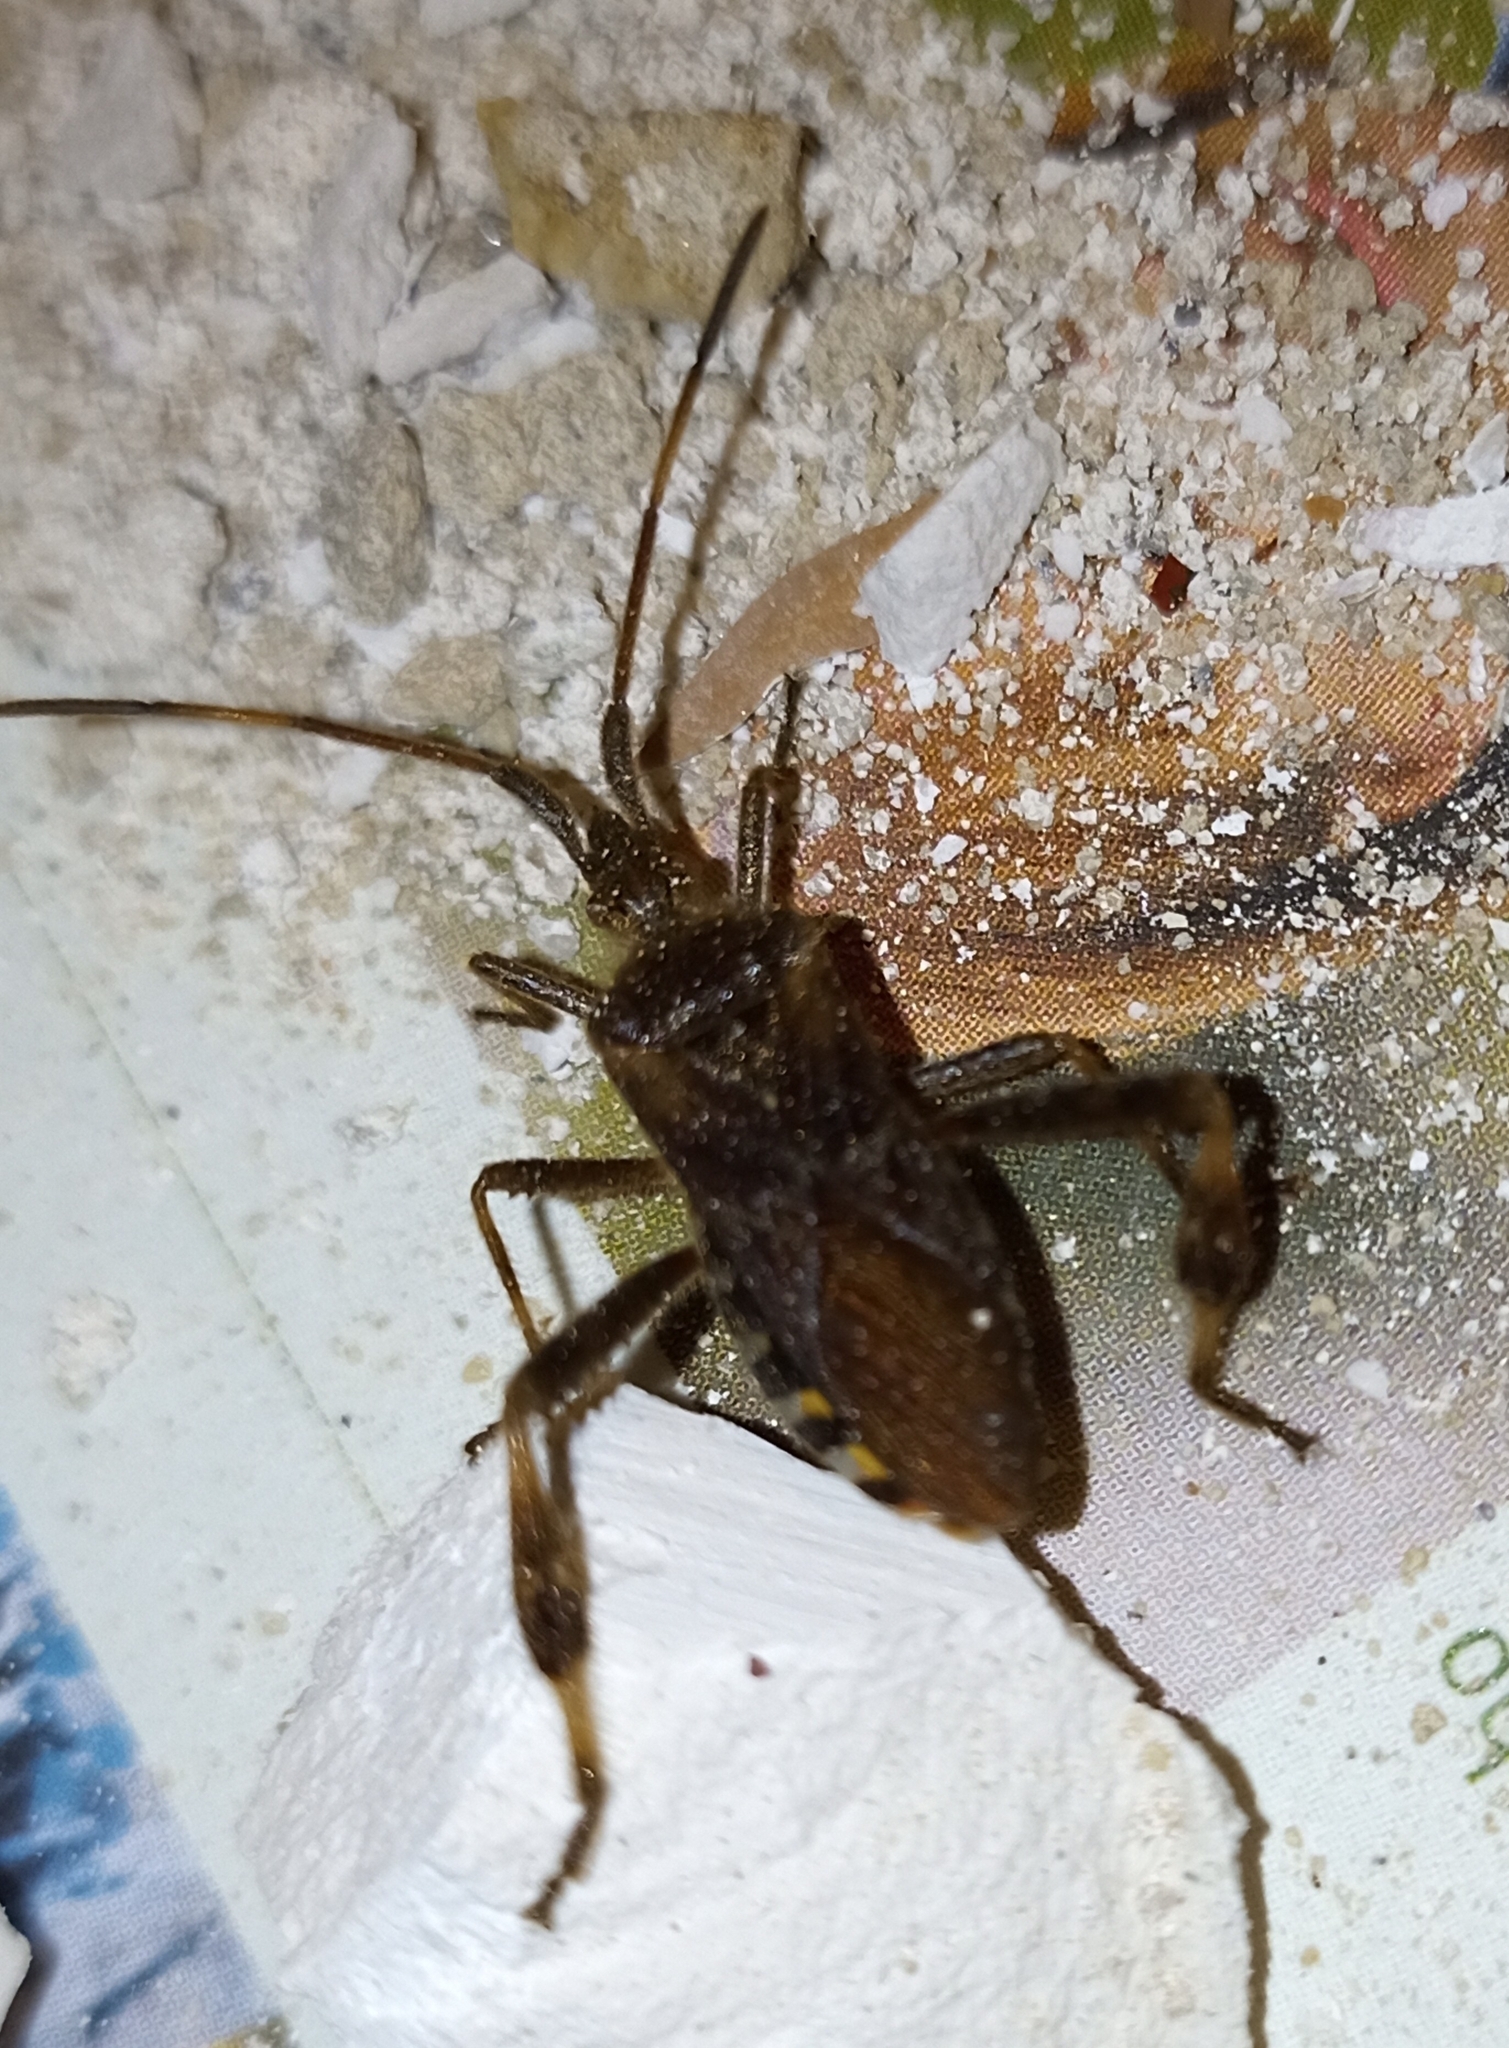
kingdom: Animalia
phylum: Arthropoda
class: Insecta
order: Hemiptera
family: Coreidae
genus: Leptoglossus
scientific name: Leptoglossus occidentalis
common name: Western conifer-seed bug
